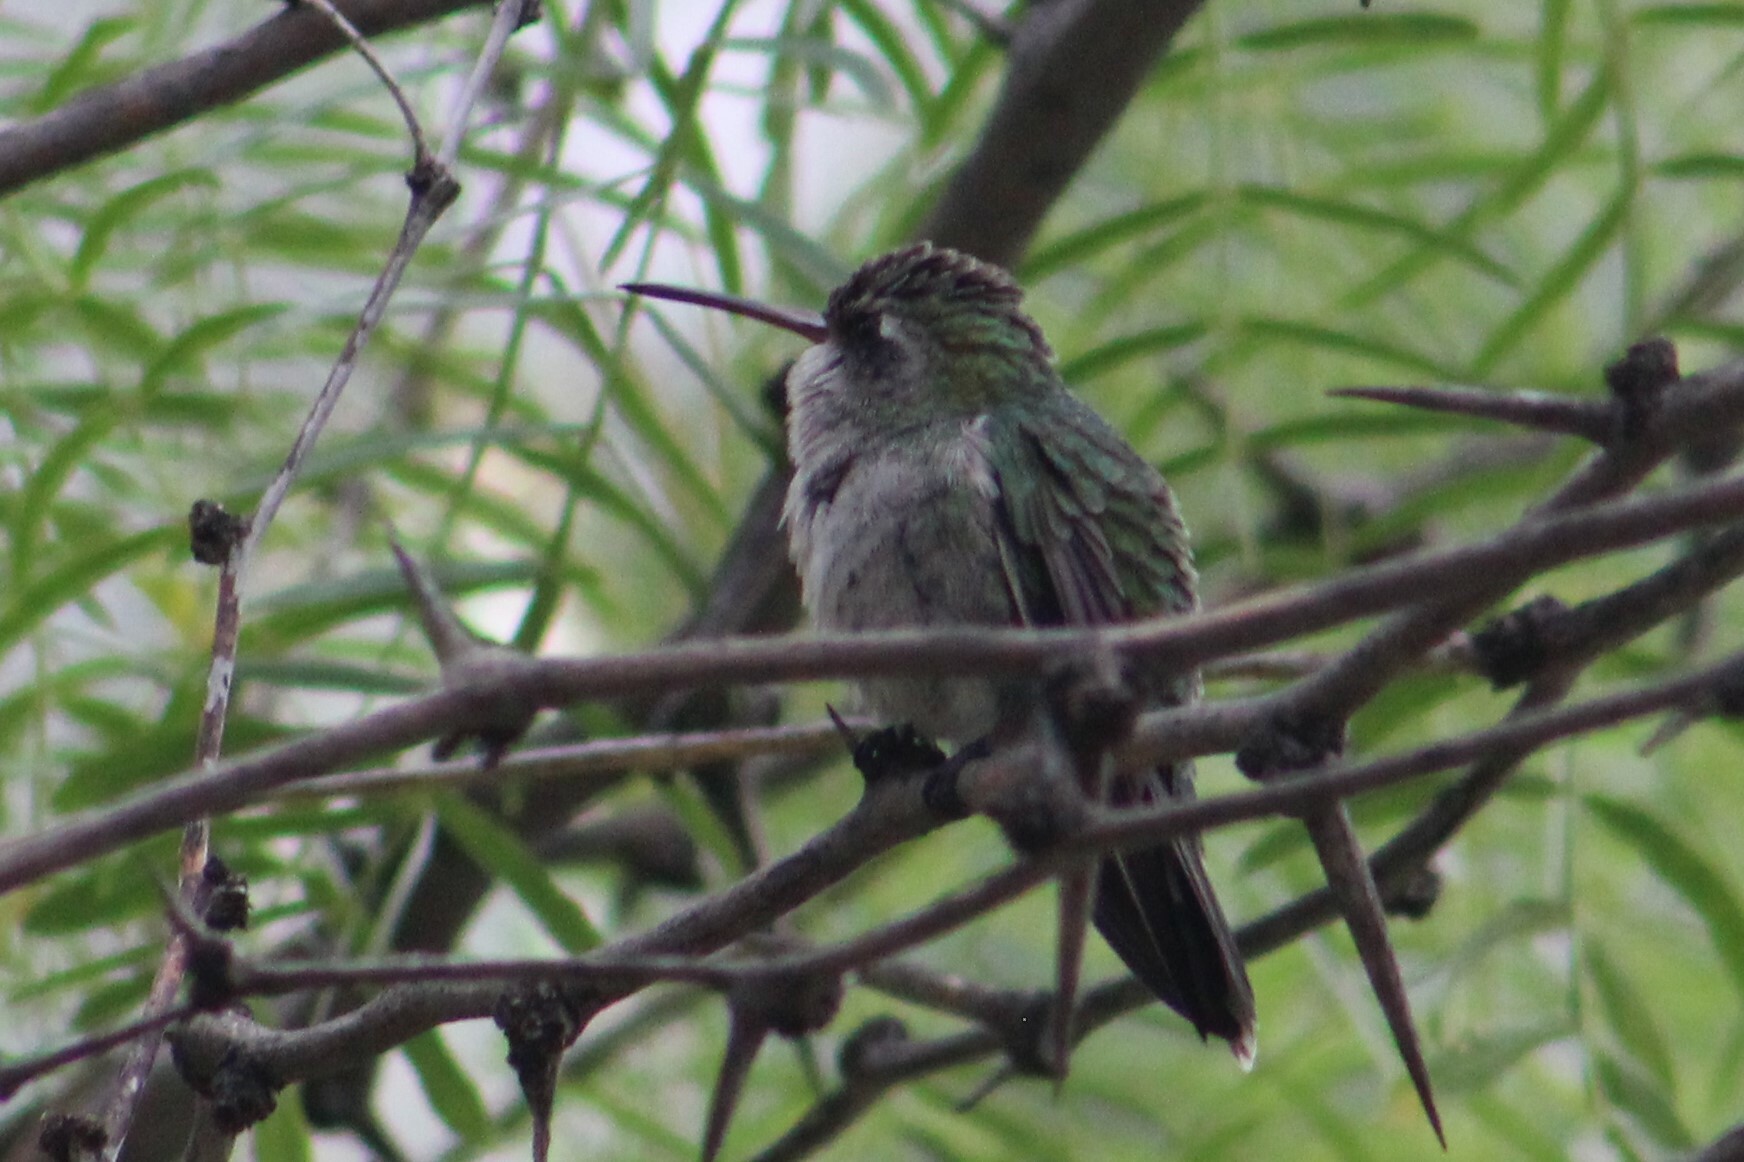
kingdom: Animalia
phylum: Chordata
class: Aves
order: Apodiformes
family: Trochilidae
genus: Cynanthus
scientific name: Cynanthus latirostris
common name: Broad-billed hummingbird
